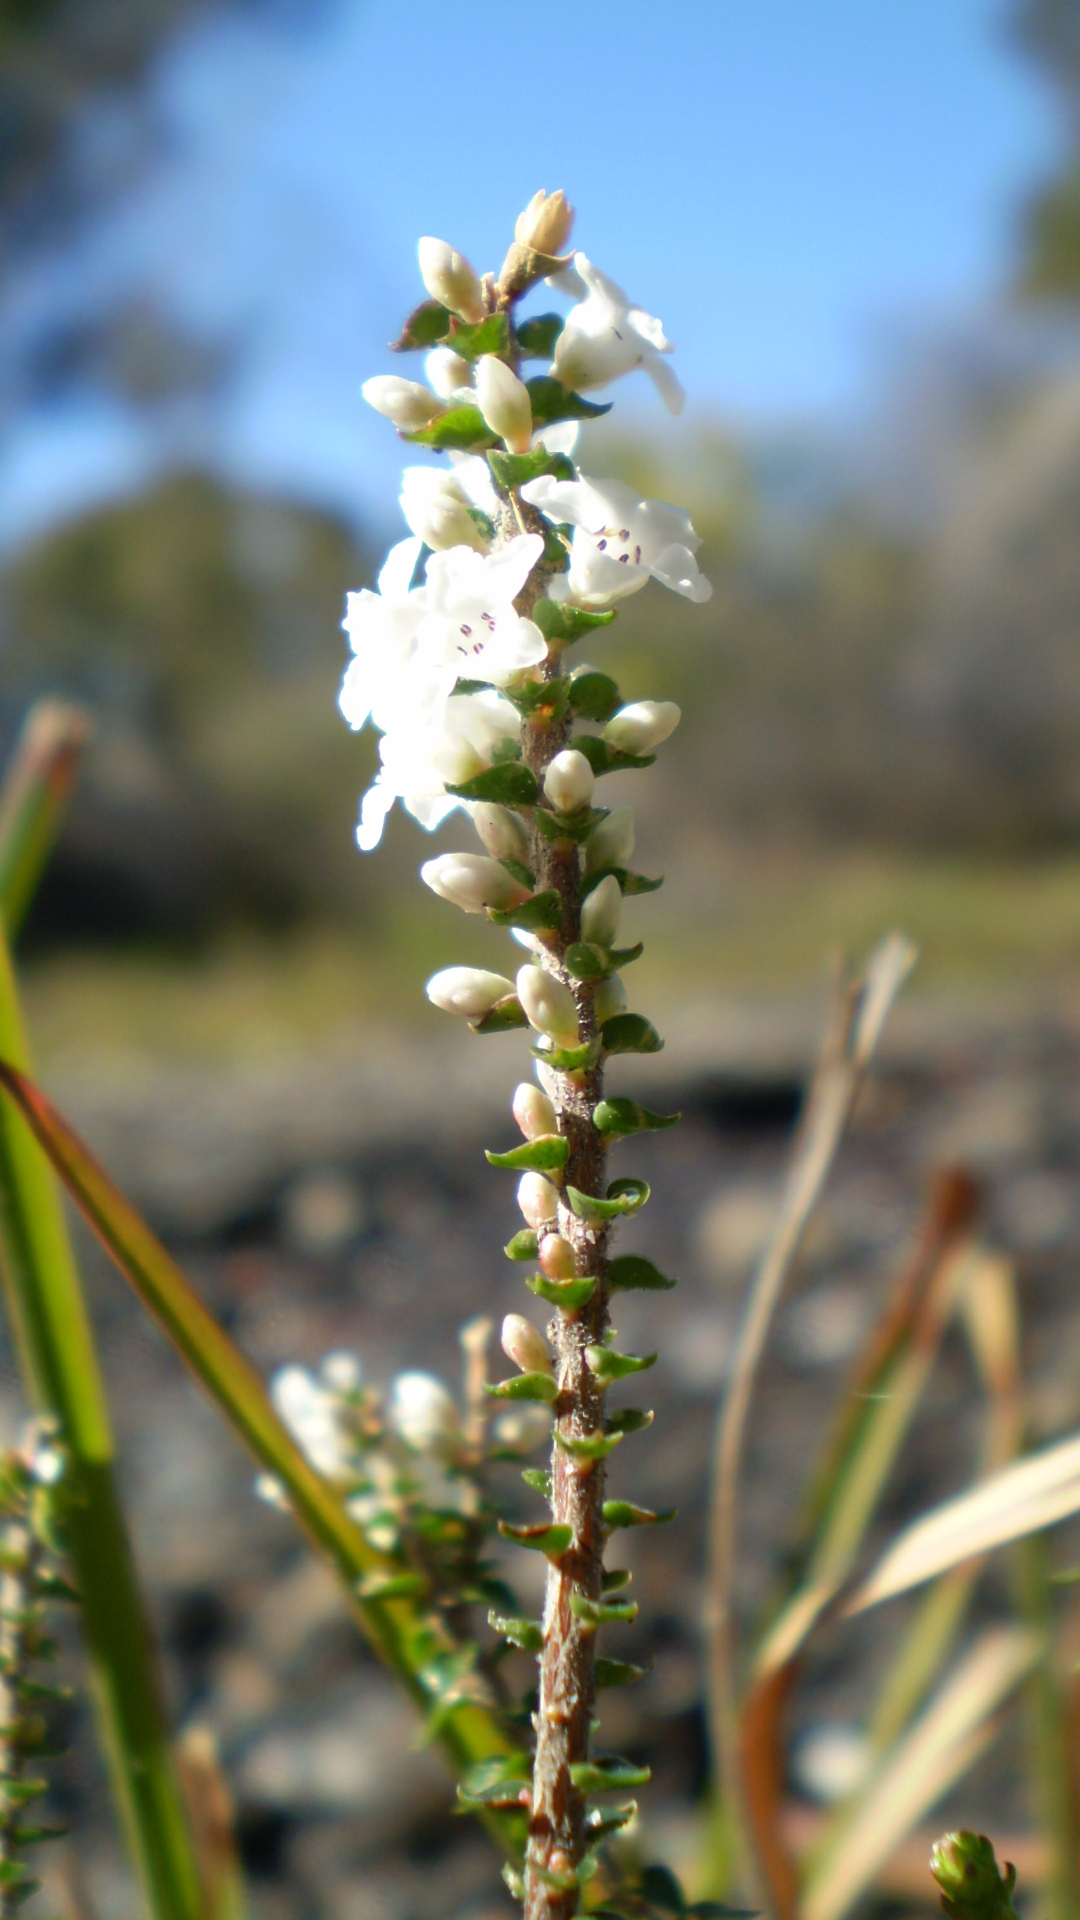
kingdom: Plantae
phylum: Tracheophyta
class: Magnoliopsida
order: Ericales
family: Ericaceae
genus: Epacris
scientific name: Epacris microphylla
